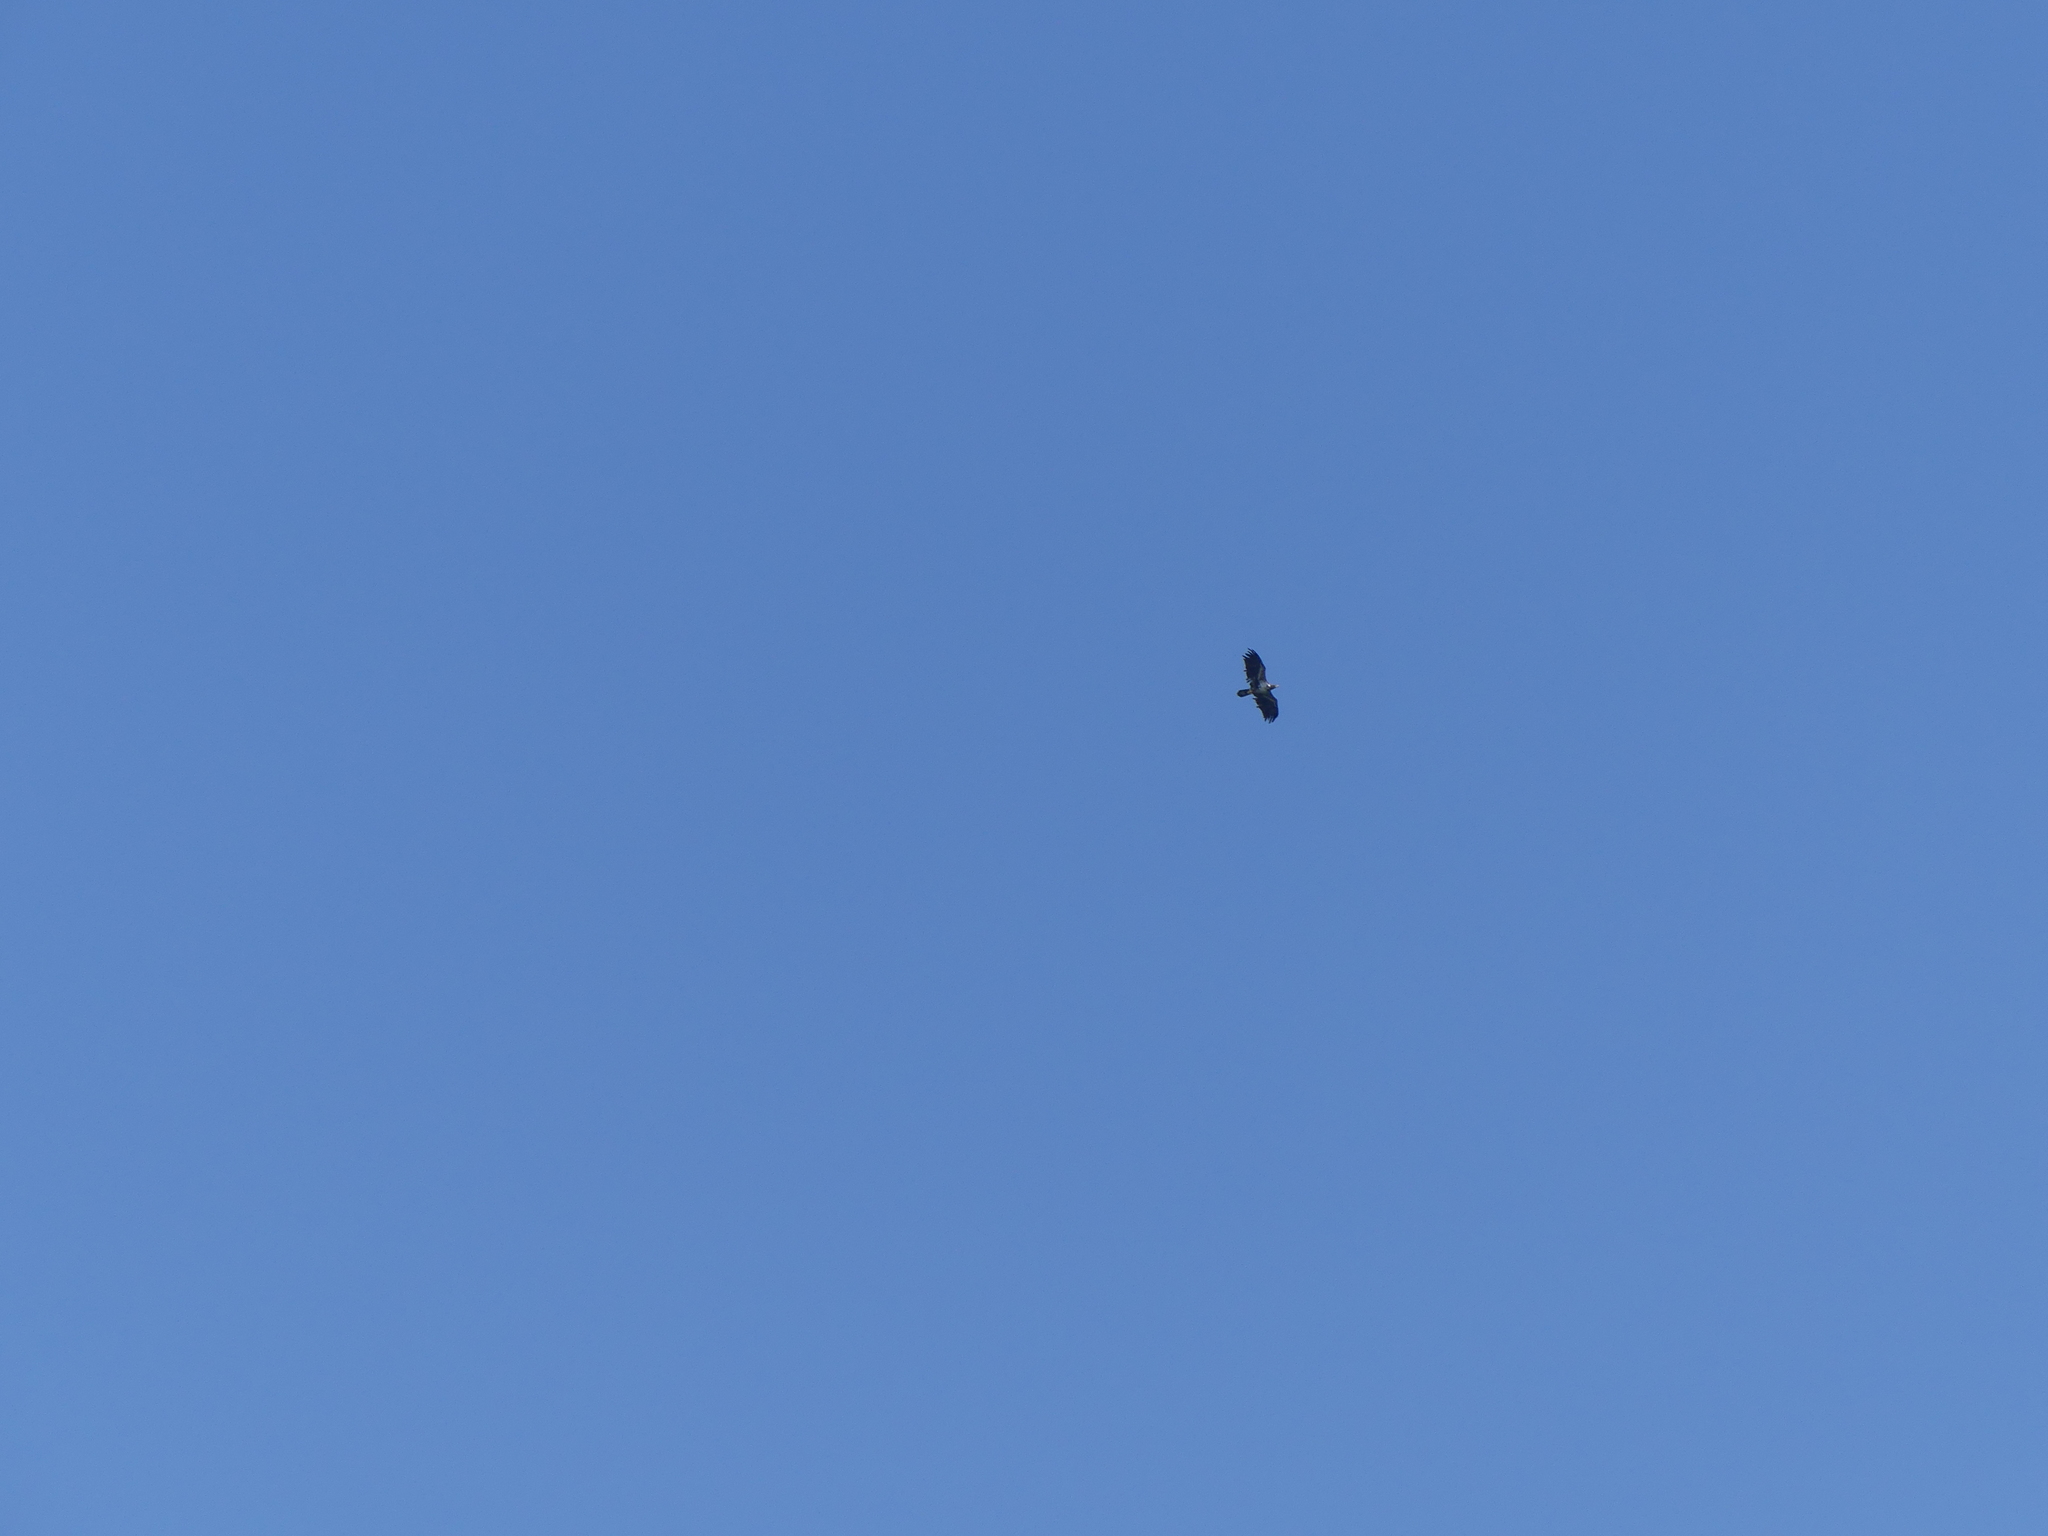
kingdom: Animalia
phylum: Chordata
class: Aves
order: Accipitriformes
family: Accipitridae
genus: Haliaeetus
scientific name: Haliaeetus leucocephalus
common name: Bald eagle
